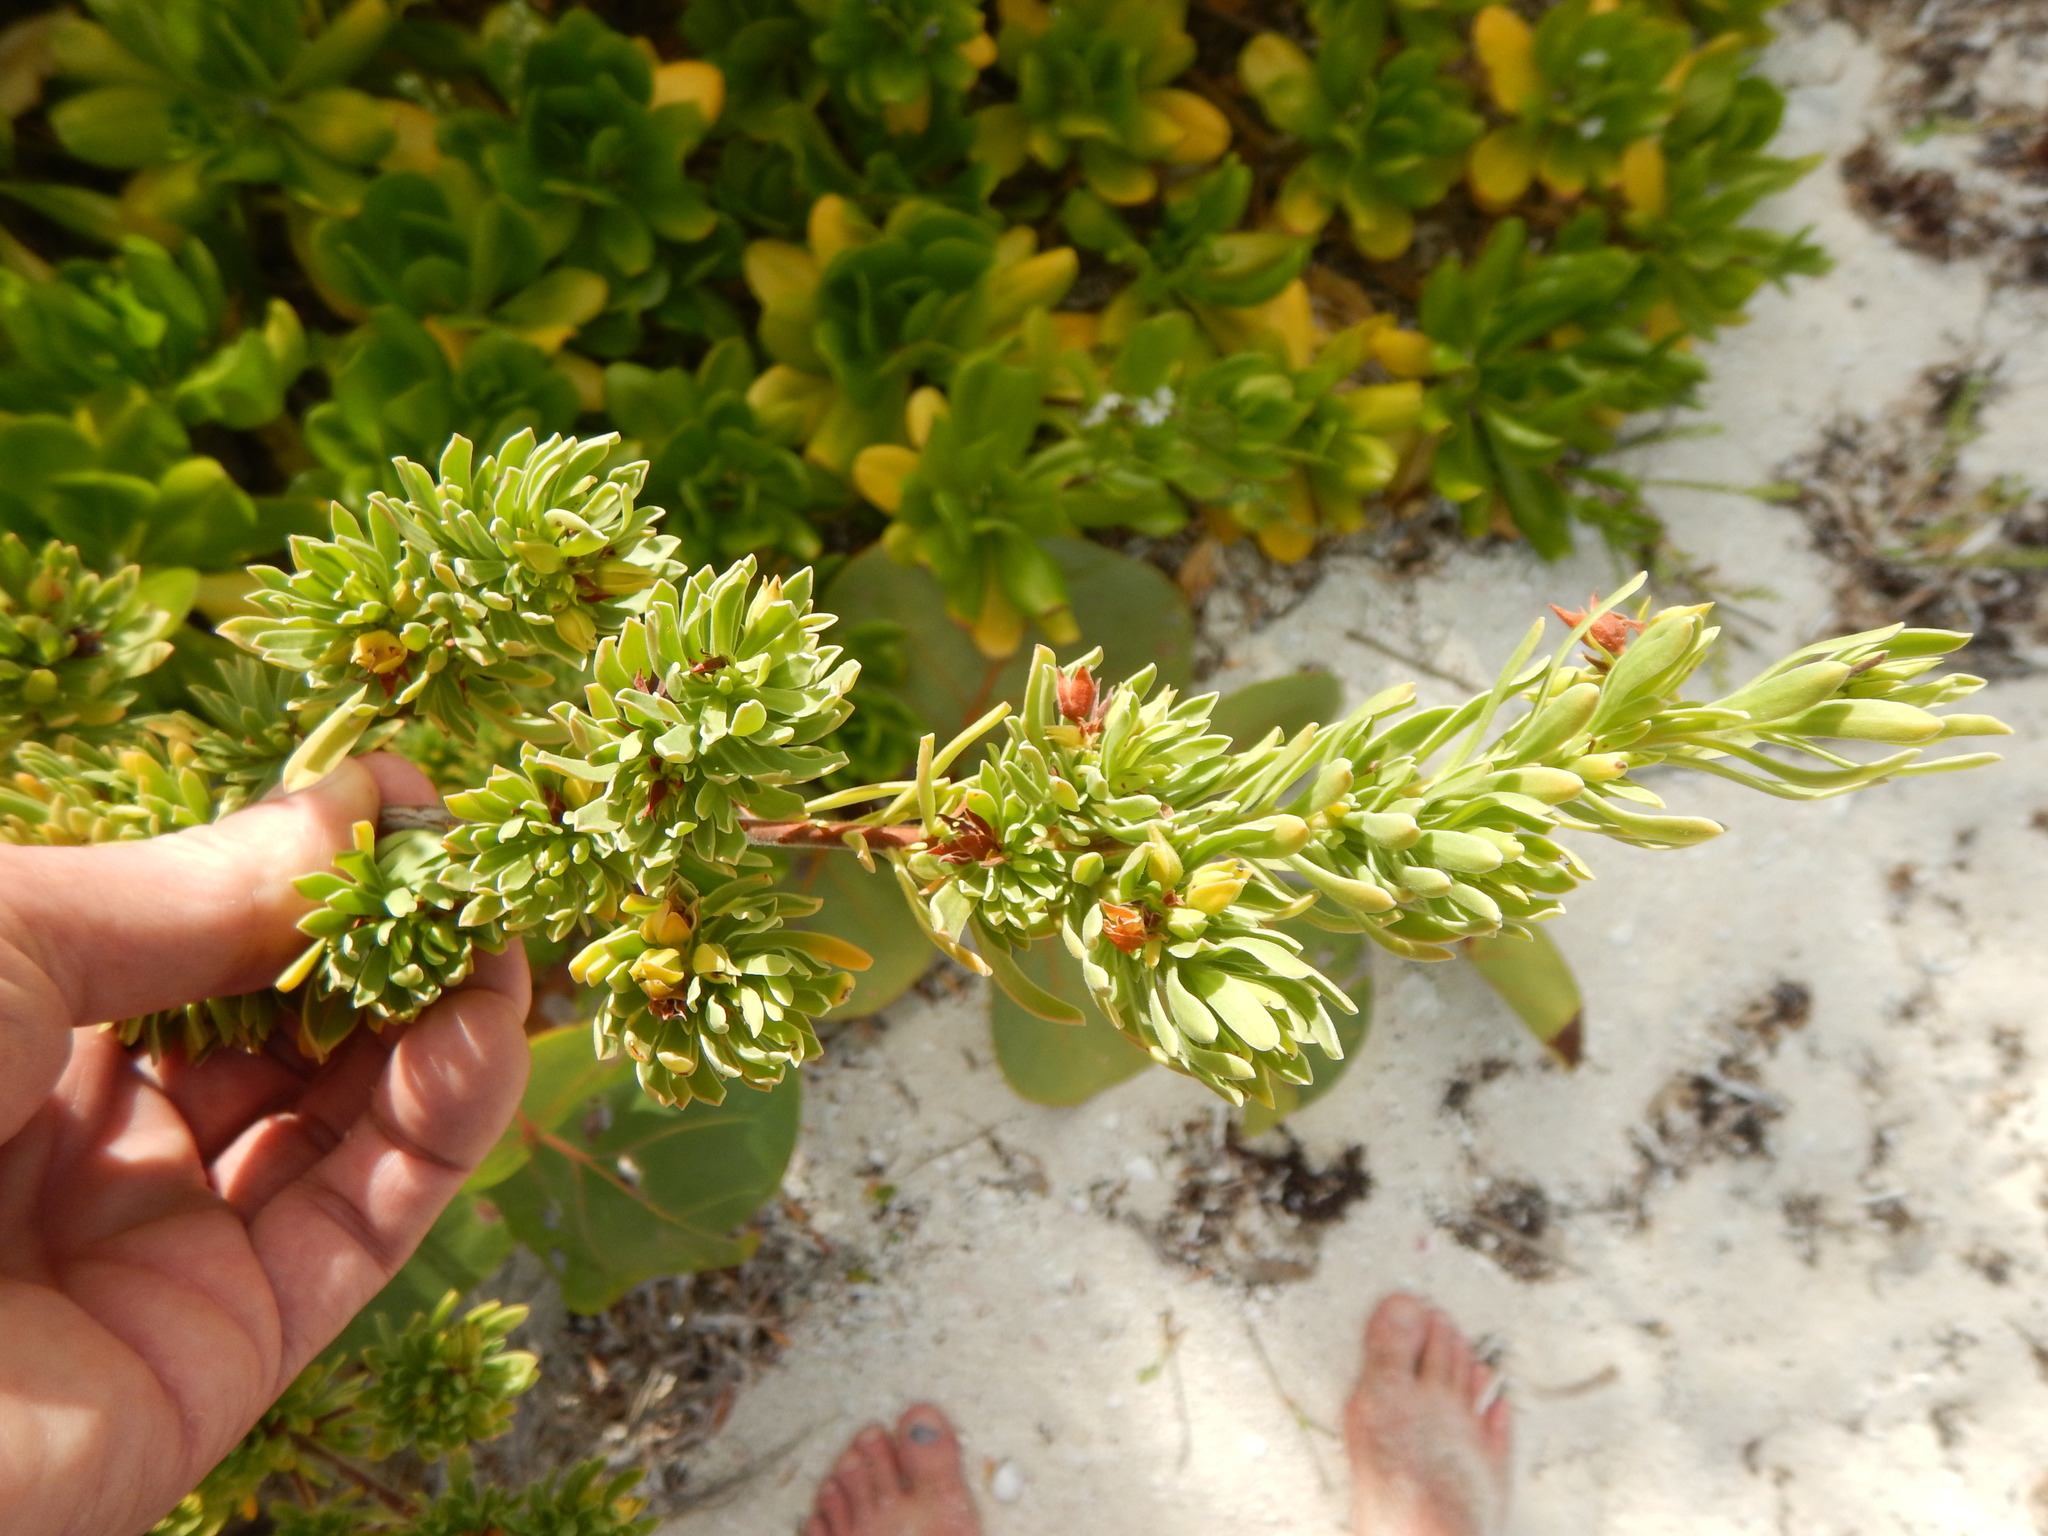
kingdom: Plantae
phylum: Tracheophyta
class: Magnoliopsida
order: Fabales
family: Surianaceae
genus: Suriana
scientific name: Suriana maritima
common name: Bay-cedar
